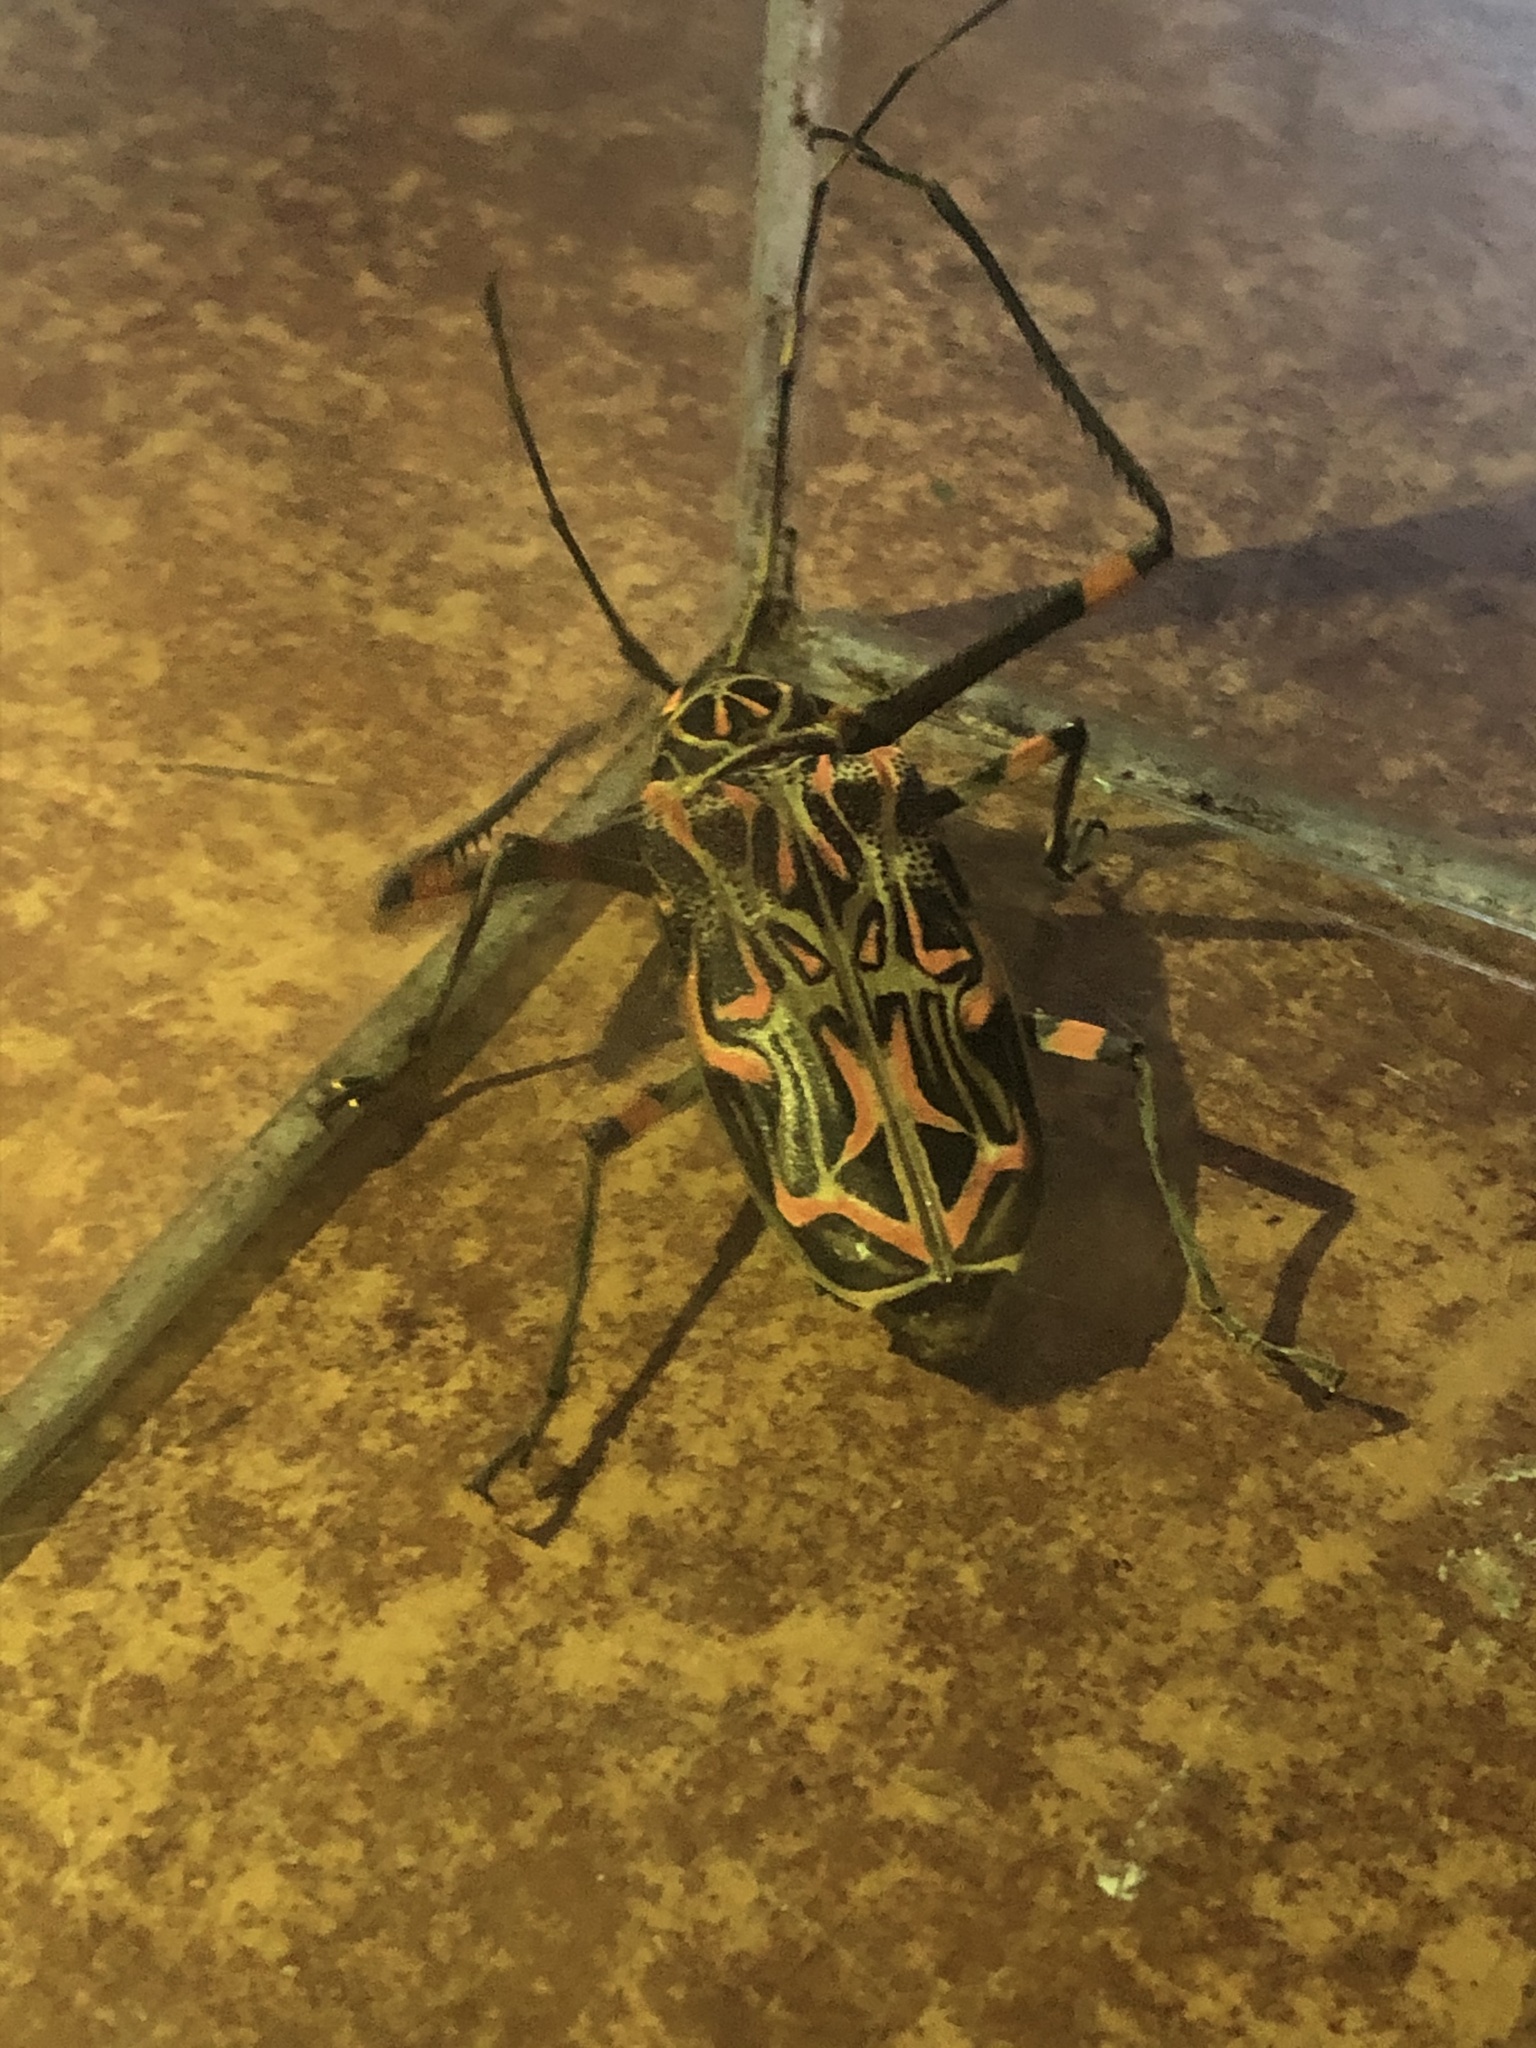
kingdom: Animalia
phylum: Arthropoda
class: Insecta
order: Coleoptera
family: Cerambycidae
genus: Acrocinus
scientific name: Acrocinus longimanus
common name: Arlequin
